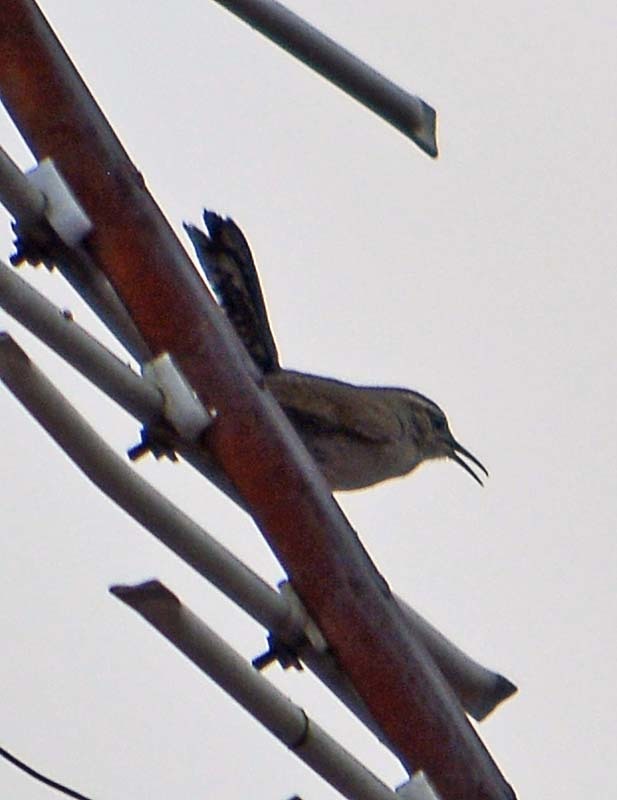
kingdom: Animalia
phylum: Chordata
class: Aves
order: Passeriformes
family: Troglodytidae
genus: Thryomanes
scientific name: Thryomanes bewickii
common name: Bewick's wren
